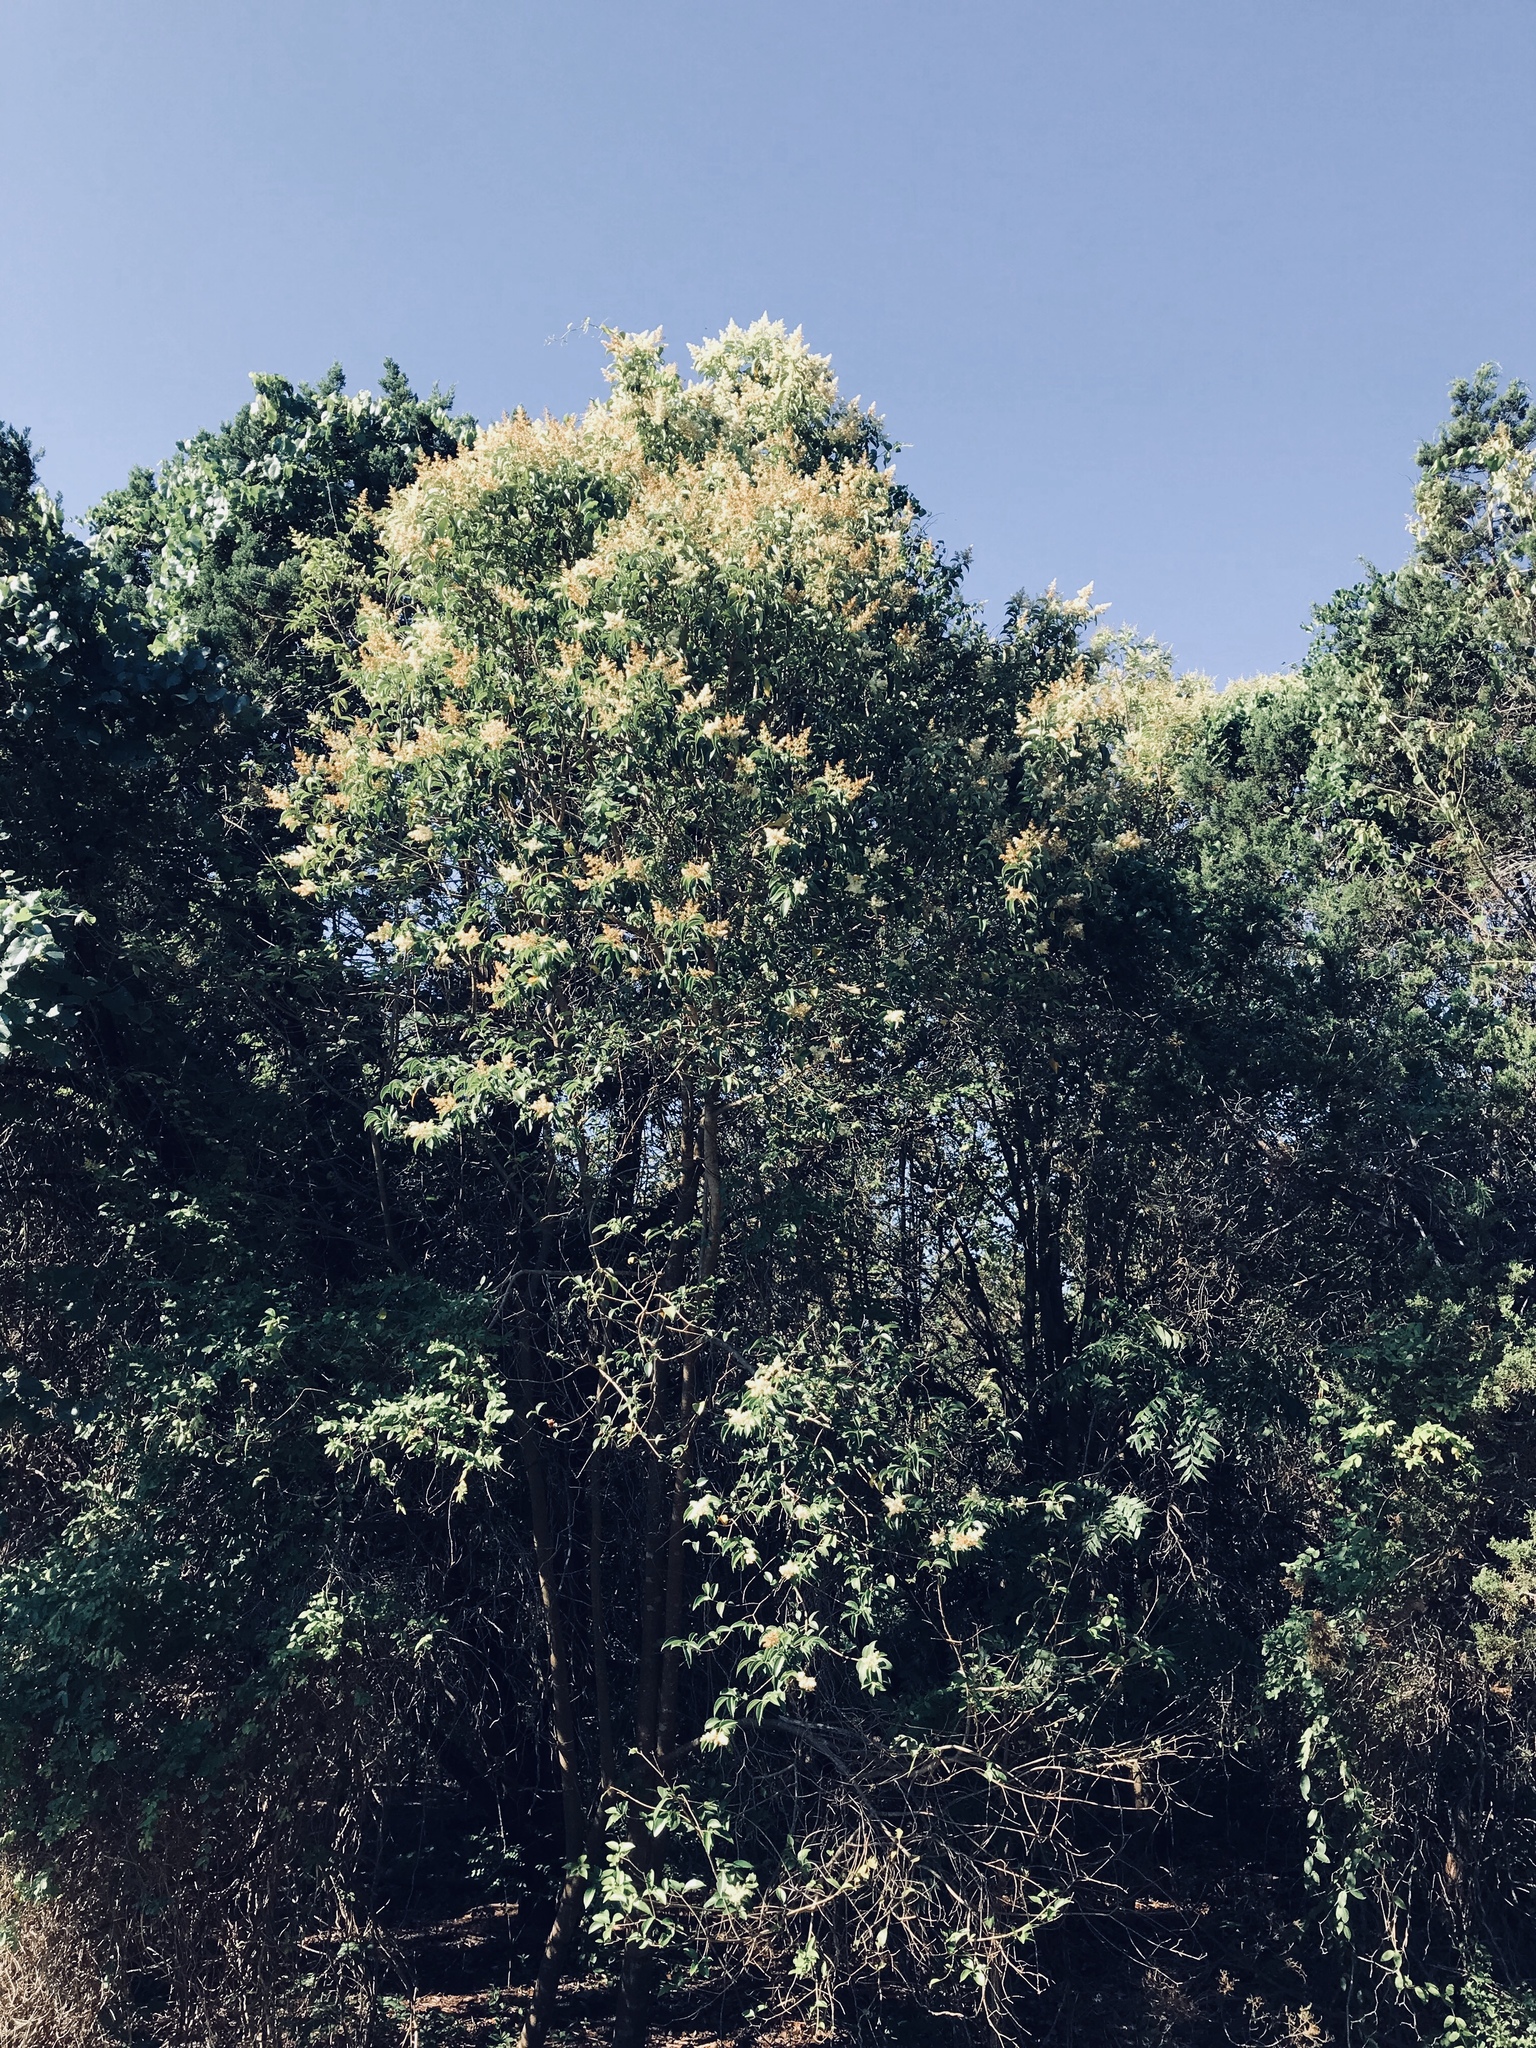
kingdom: Plantae
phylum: Tracheophyta
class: Magnoliopsida
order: Lamiales
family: Oleaceae
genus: Ligustrum
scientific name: Ligustrum lucidum
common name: Glossy privet
